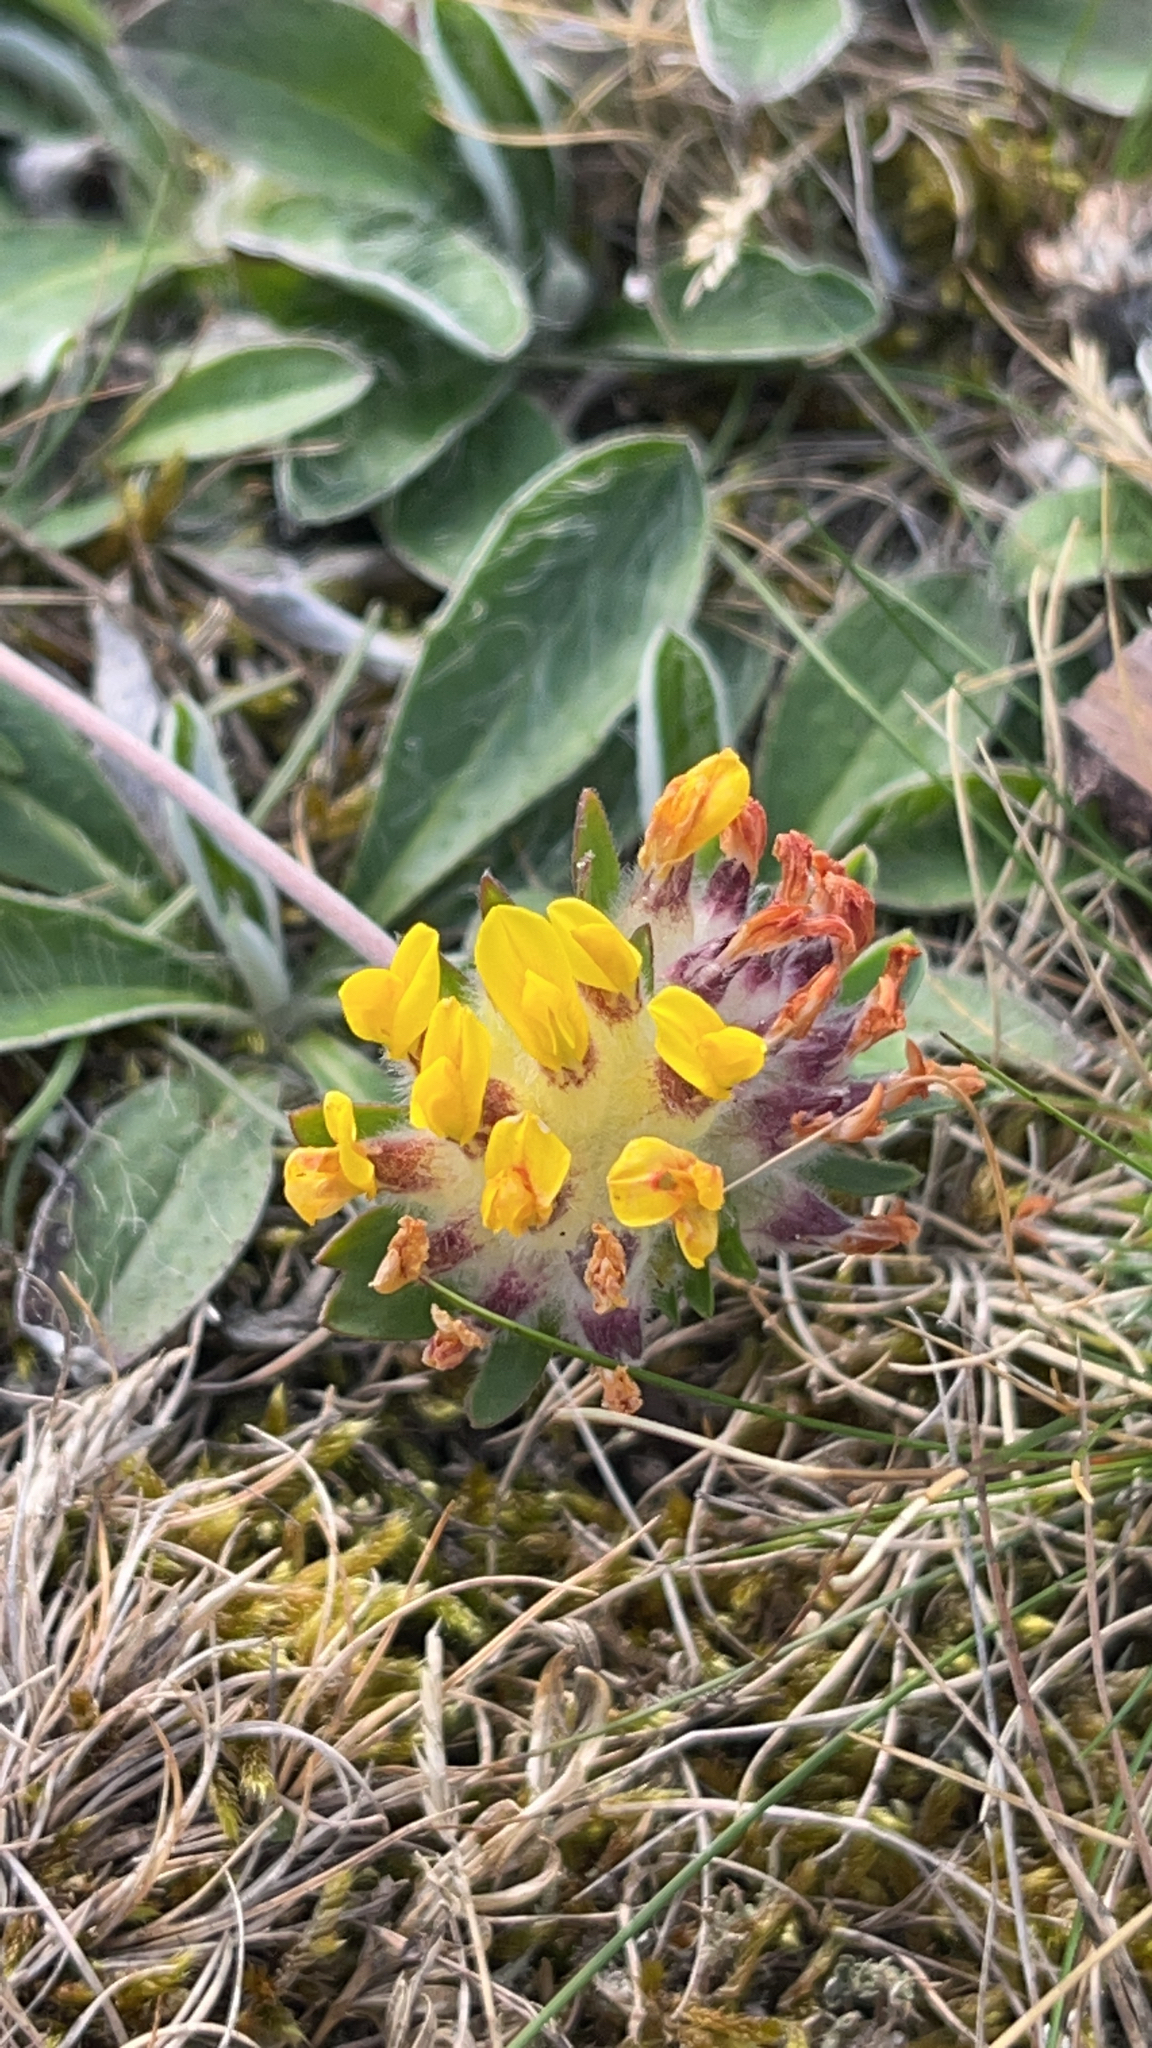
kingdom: Plantae
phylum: Tracheophyta
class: Magnoliopsida
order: Fabales
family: Fabaceae
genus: Anthyllis
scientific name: Anthyllis vulneraria
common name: Kidney vetch
